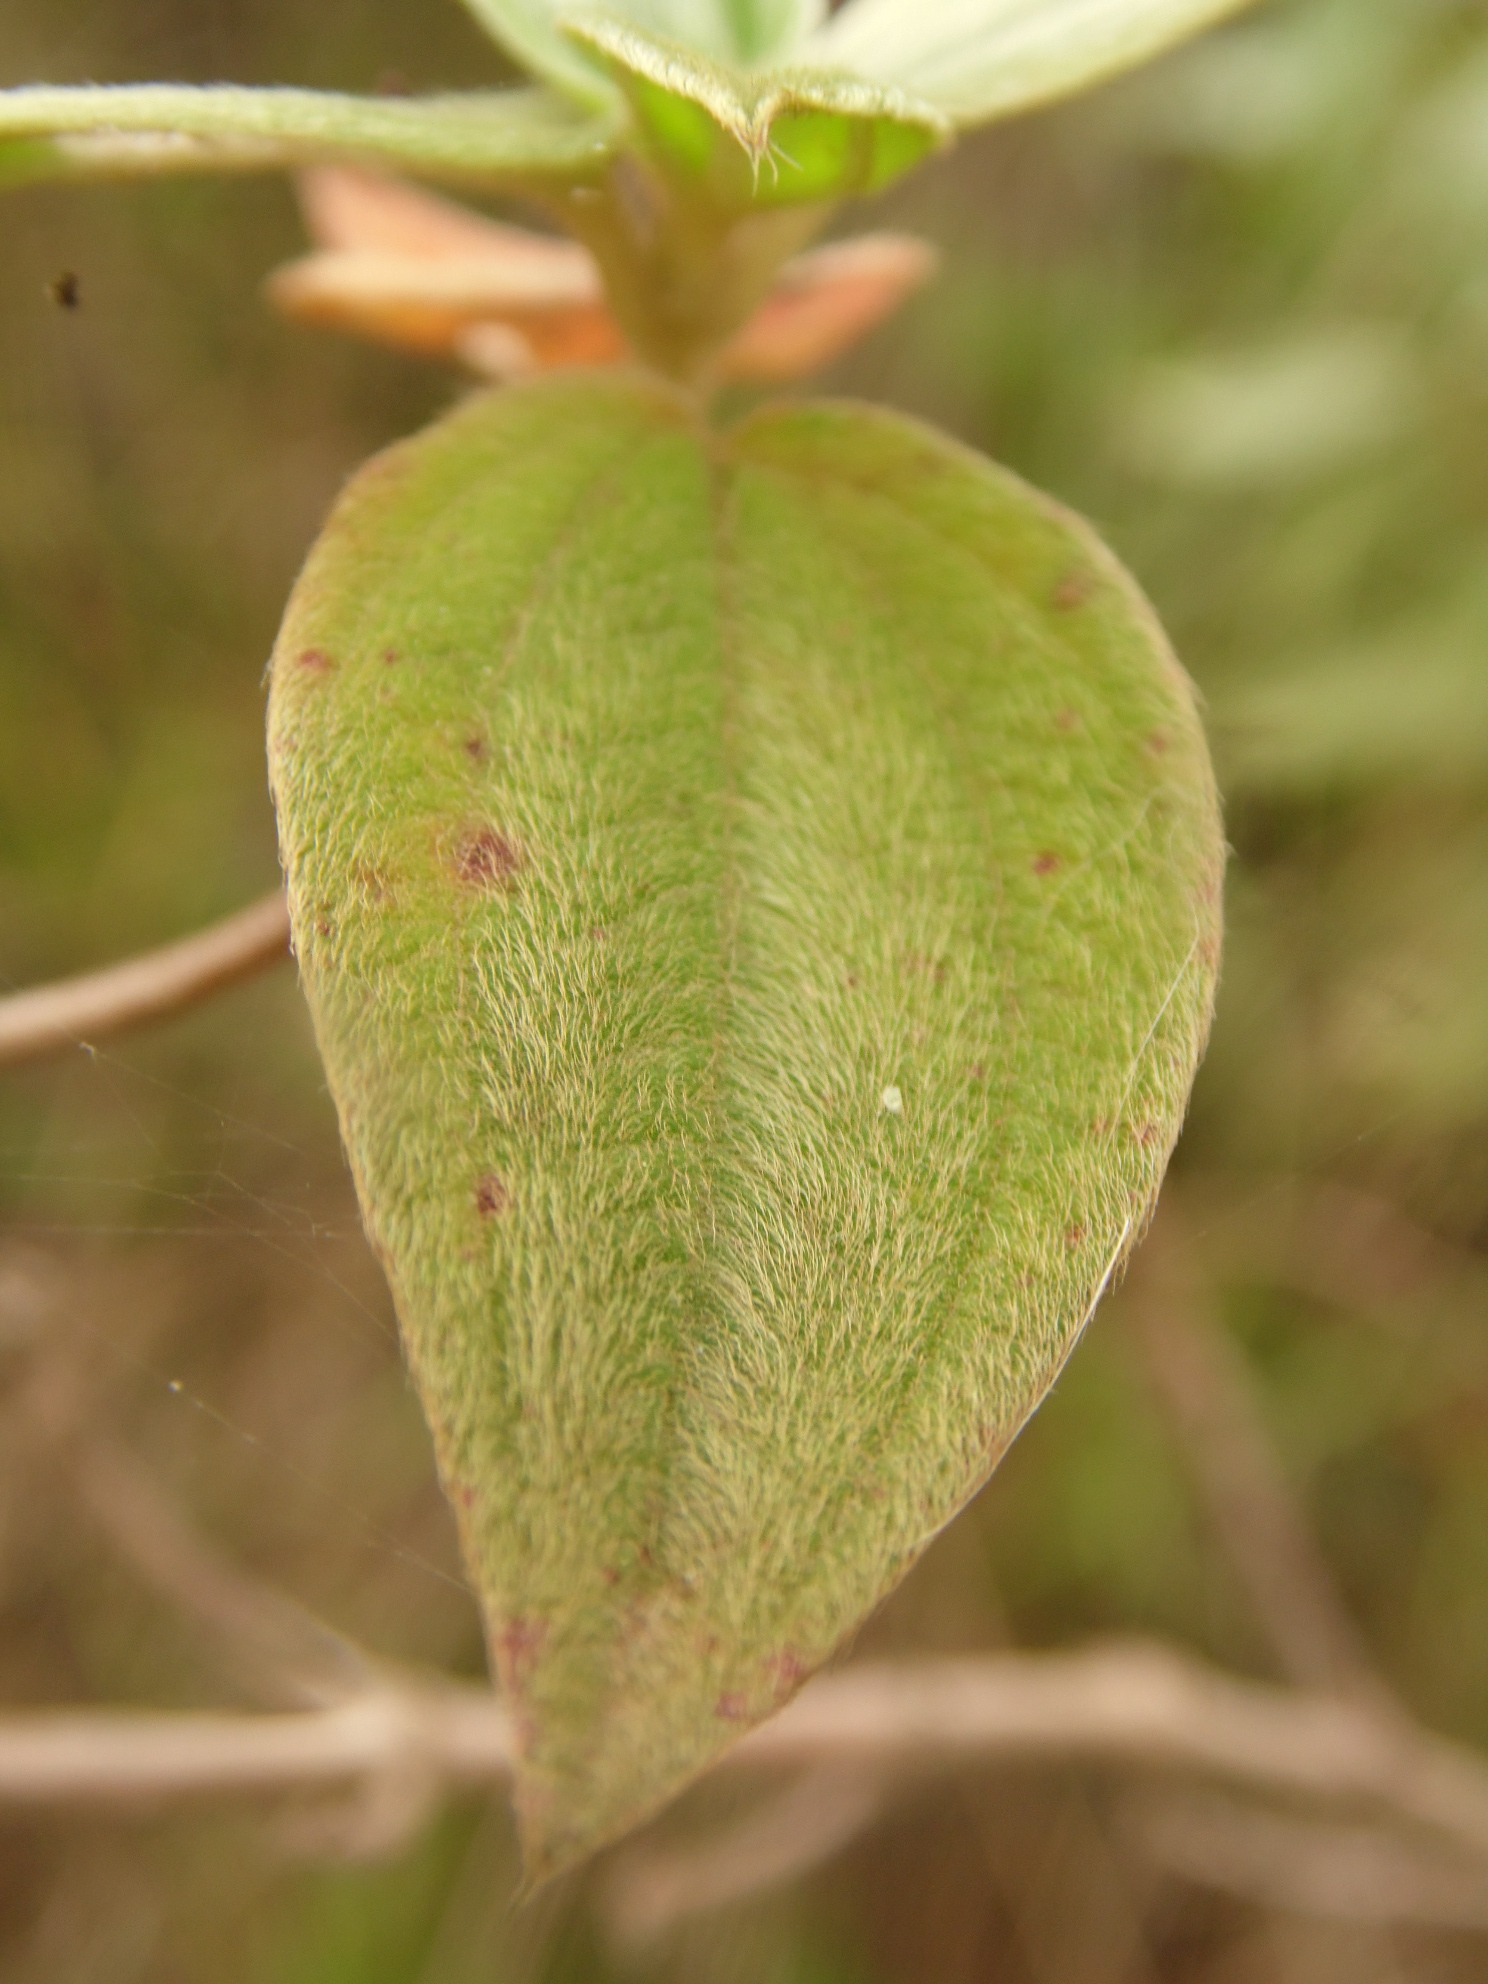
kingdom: Plantae
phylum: Tracheophyta
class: Magnoliopsida
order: Myrtales
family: Melastomataceae
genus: Pleroma
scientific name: Pleroma urvilleanum
